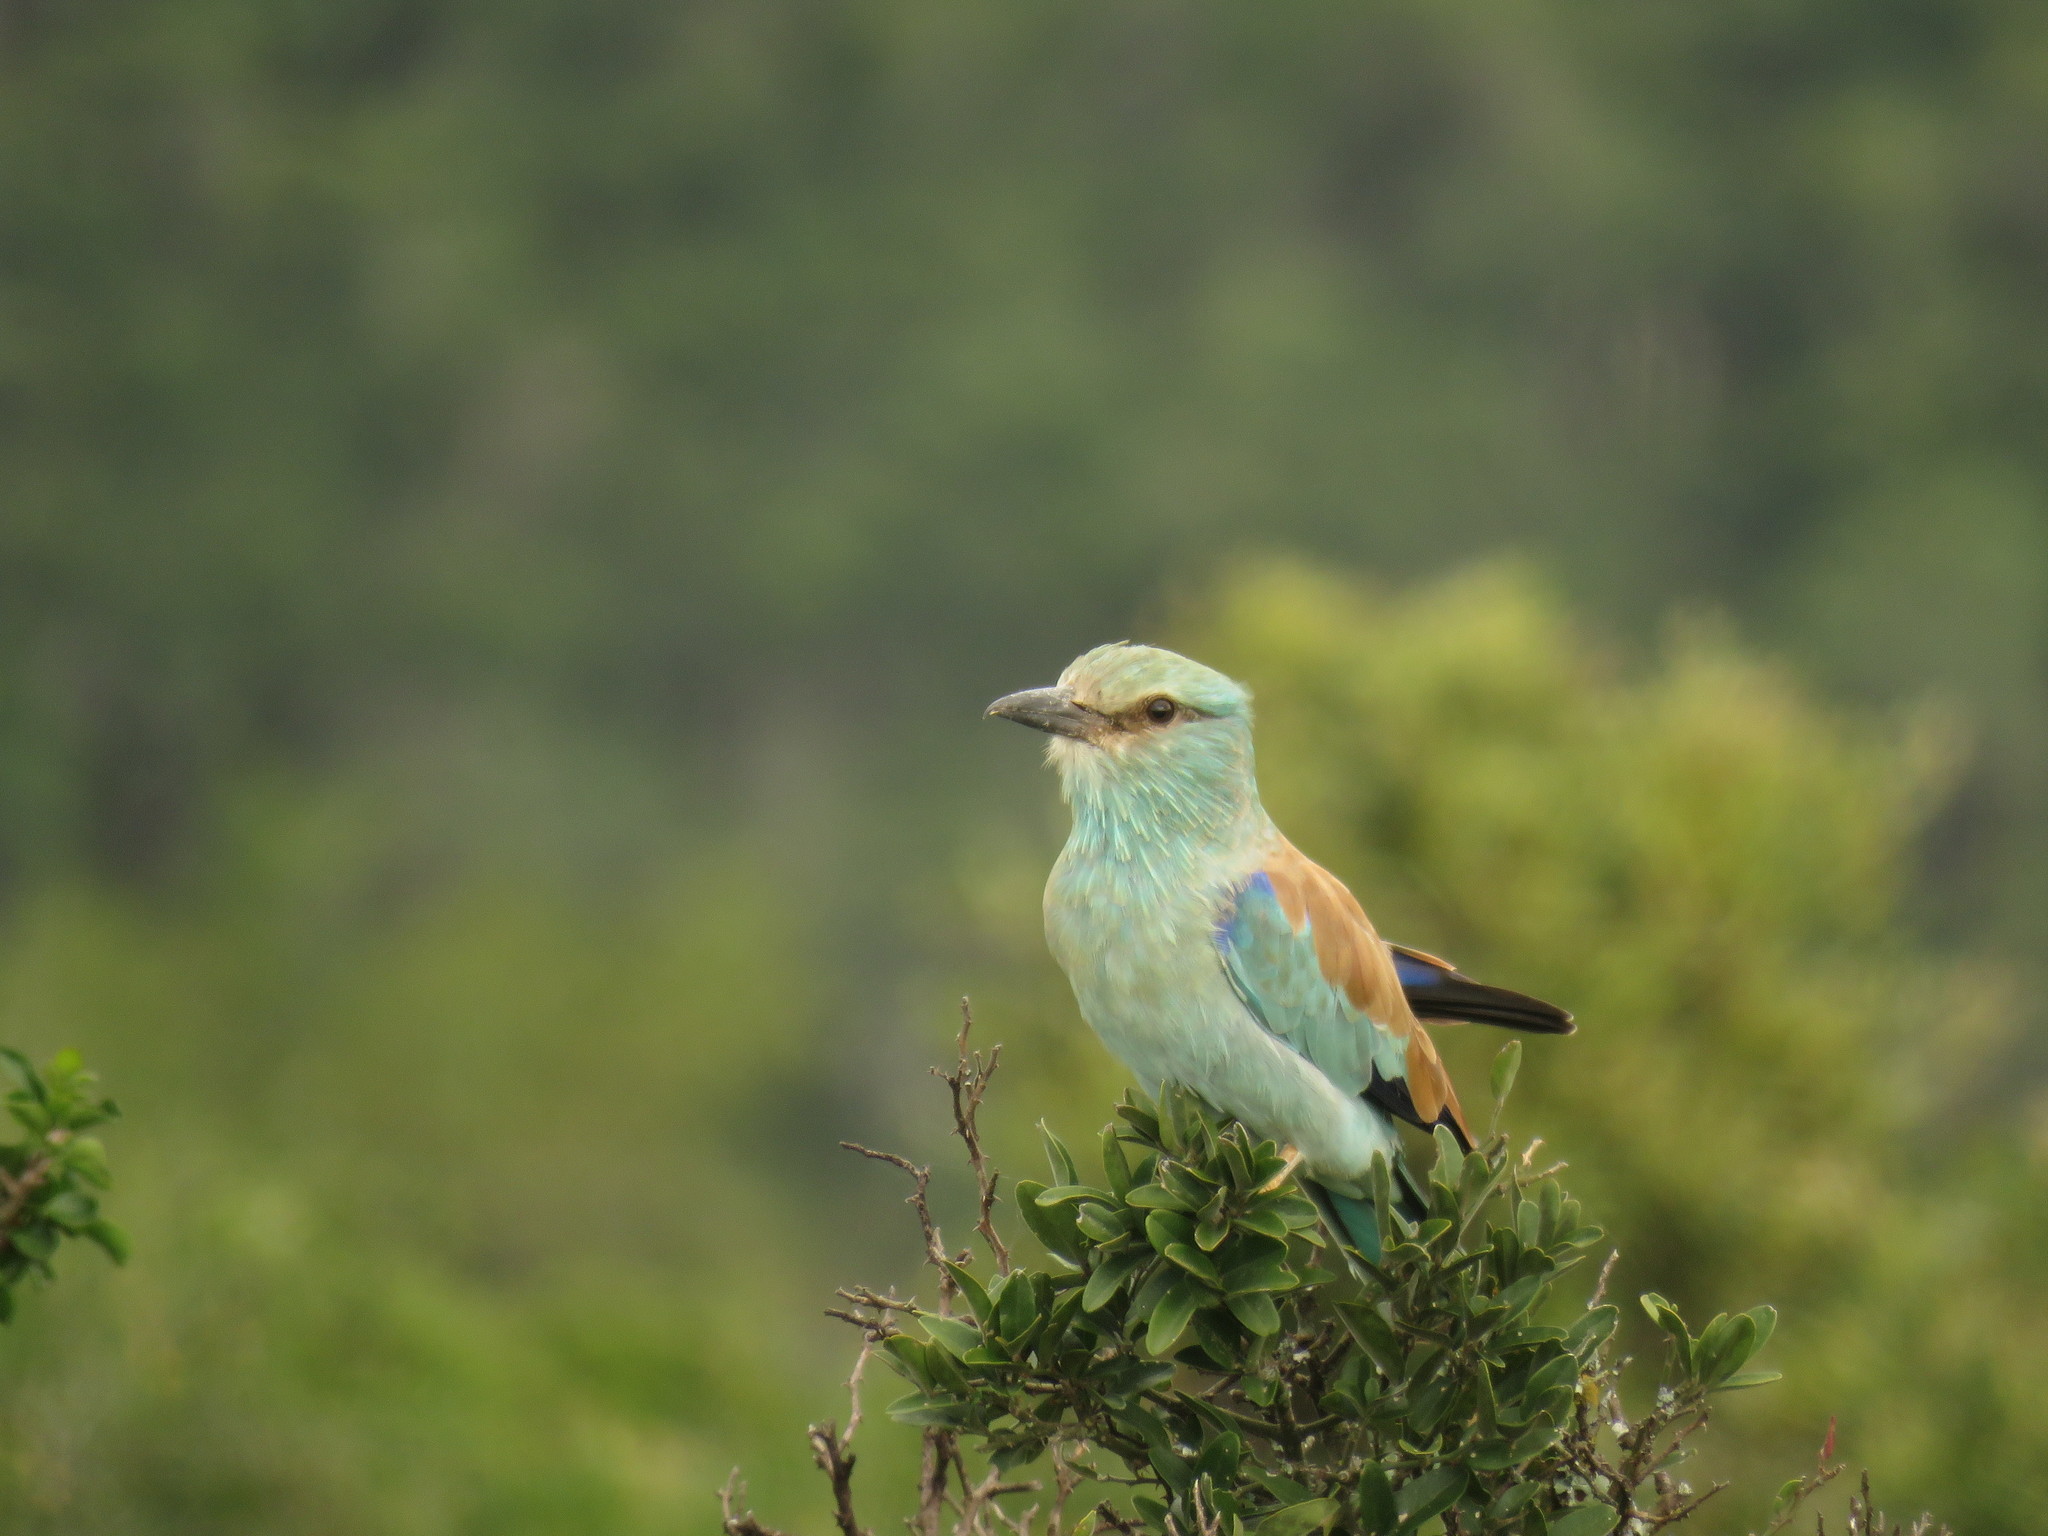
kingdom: Animalia
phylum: Chordata
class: Aves
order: Coraciiformes
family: Coraciidae
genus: Coracias
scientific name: Coracias garrulus
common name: European roller
